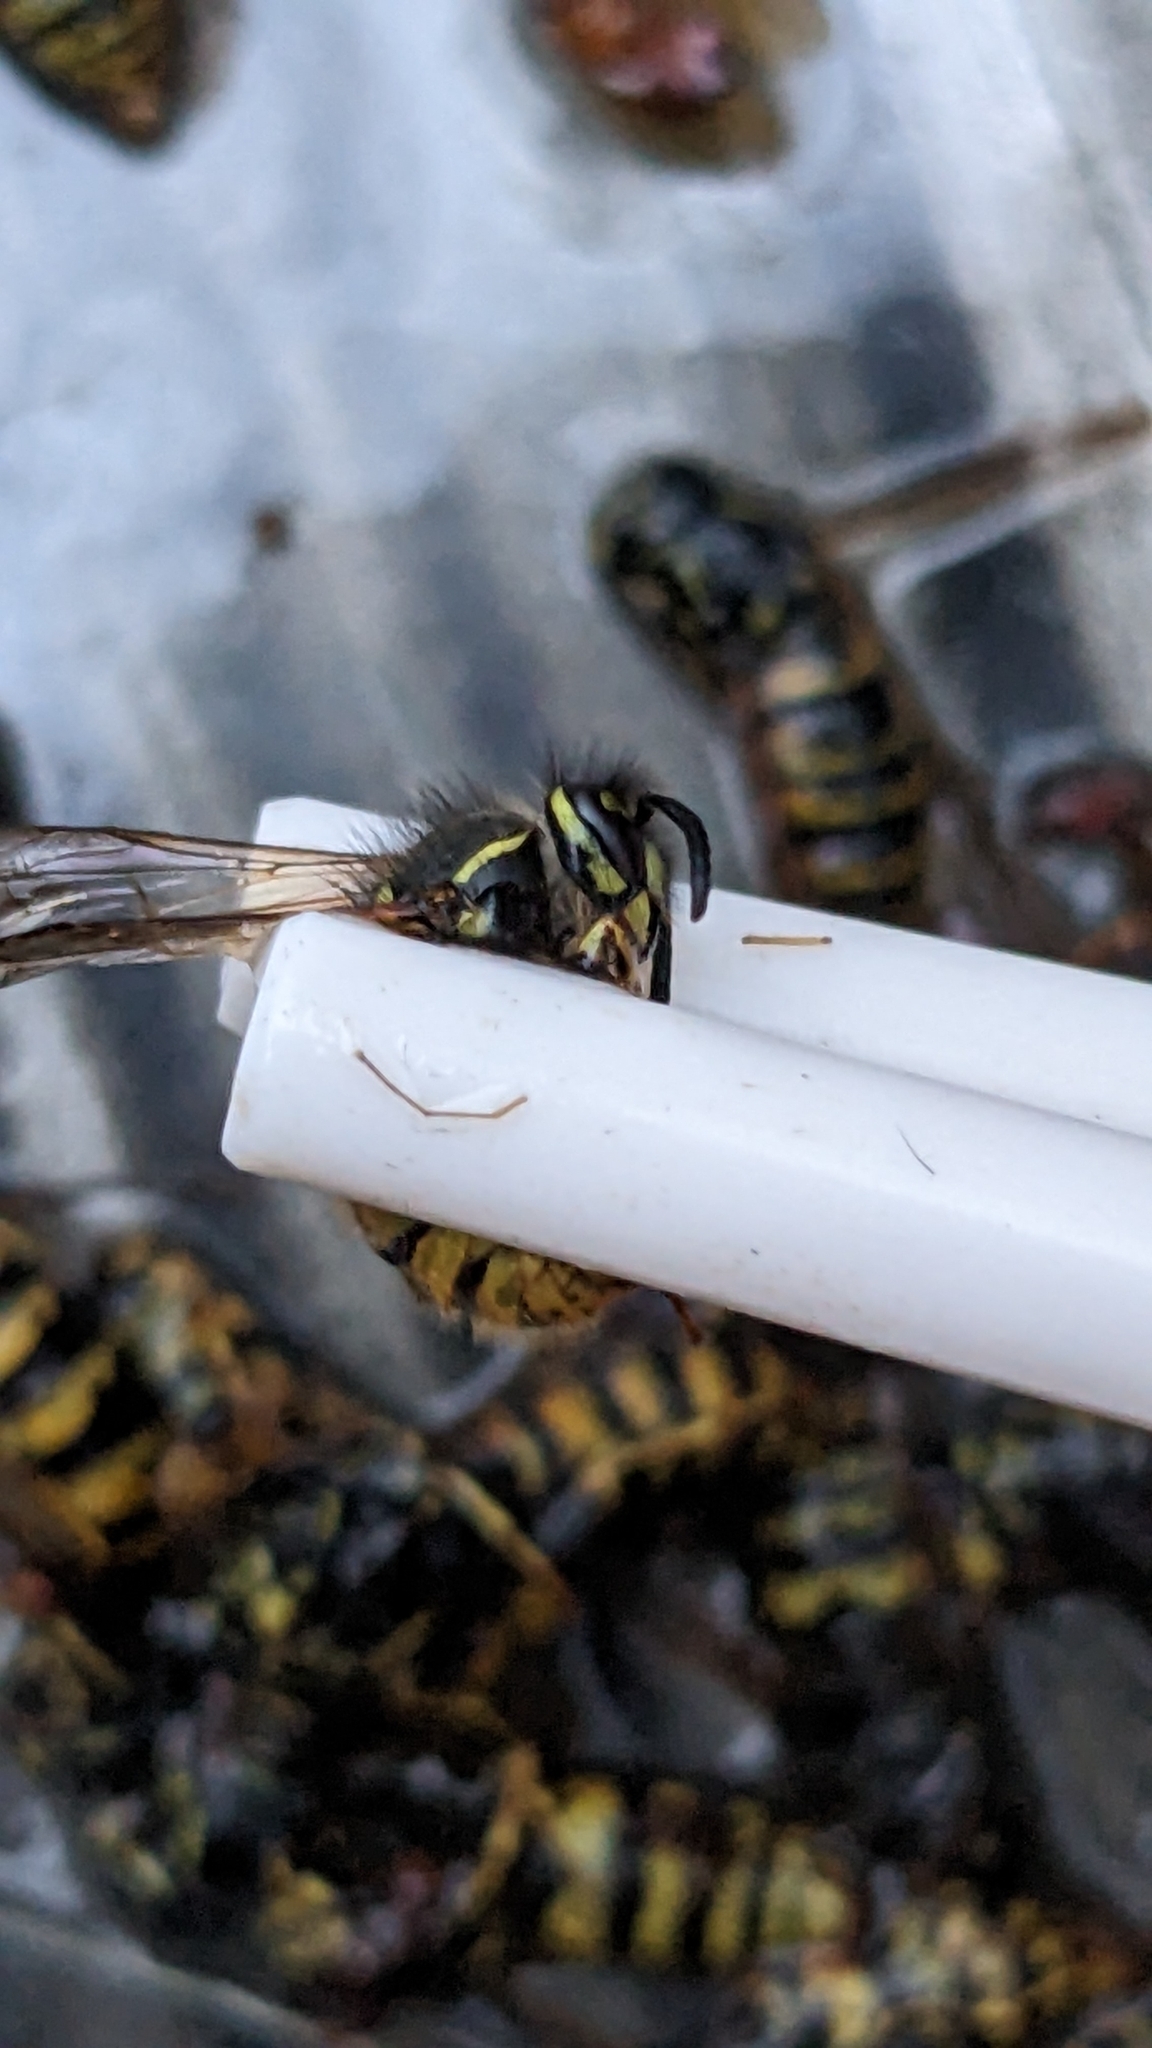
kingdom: Animalia
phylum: Arthropoda
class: Insecta
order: Hymenoptera
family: Vespidae
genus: Vespula
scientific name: Vespula vulgaris
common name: Common wasp
